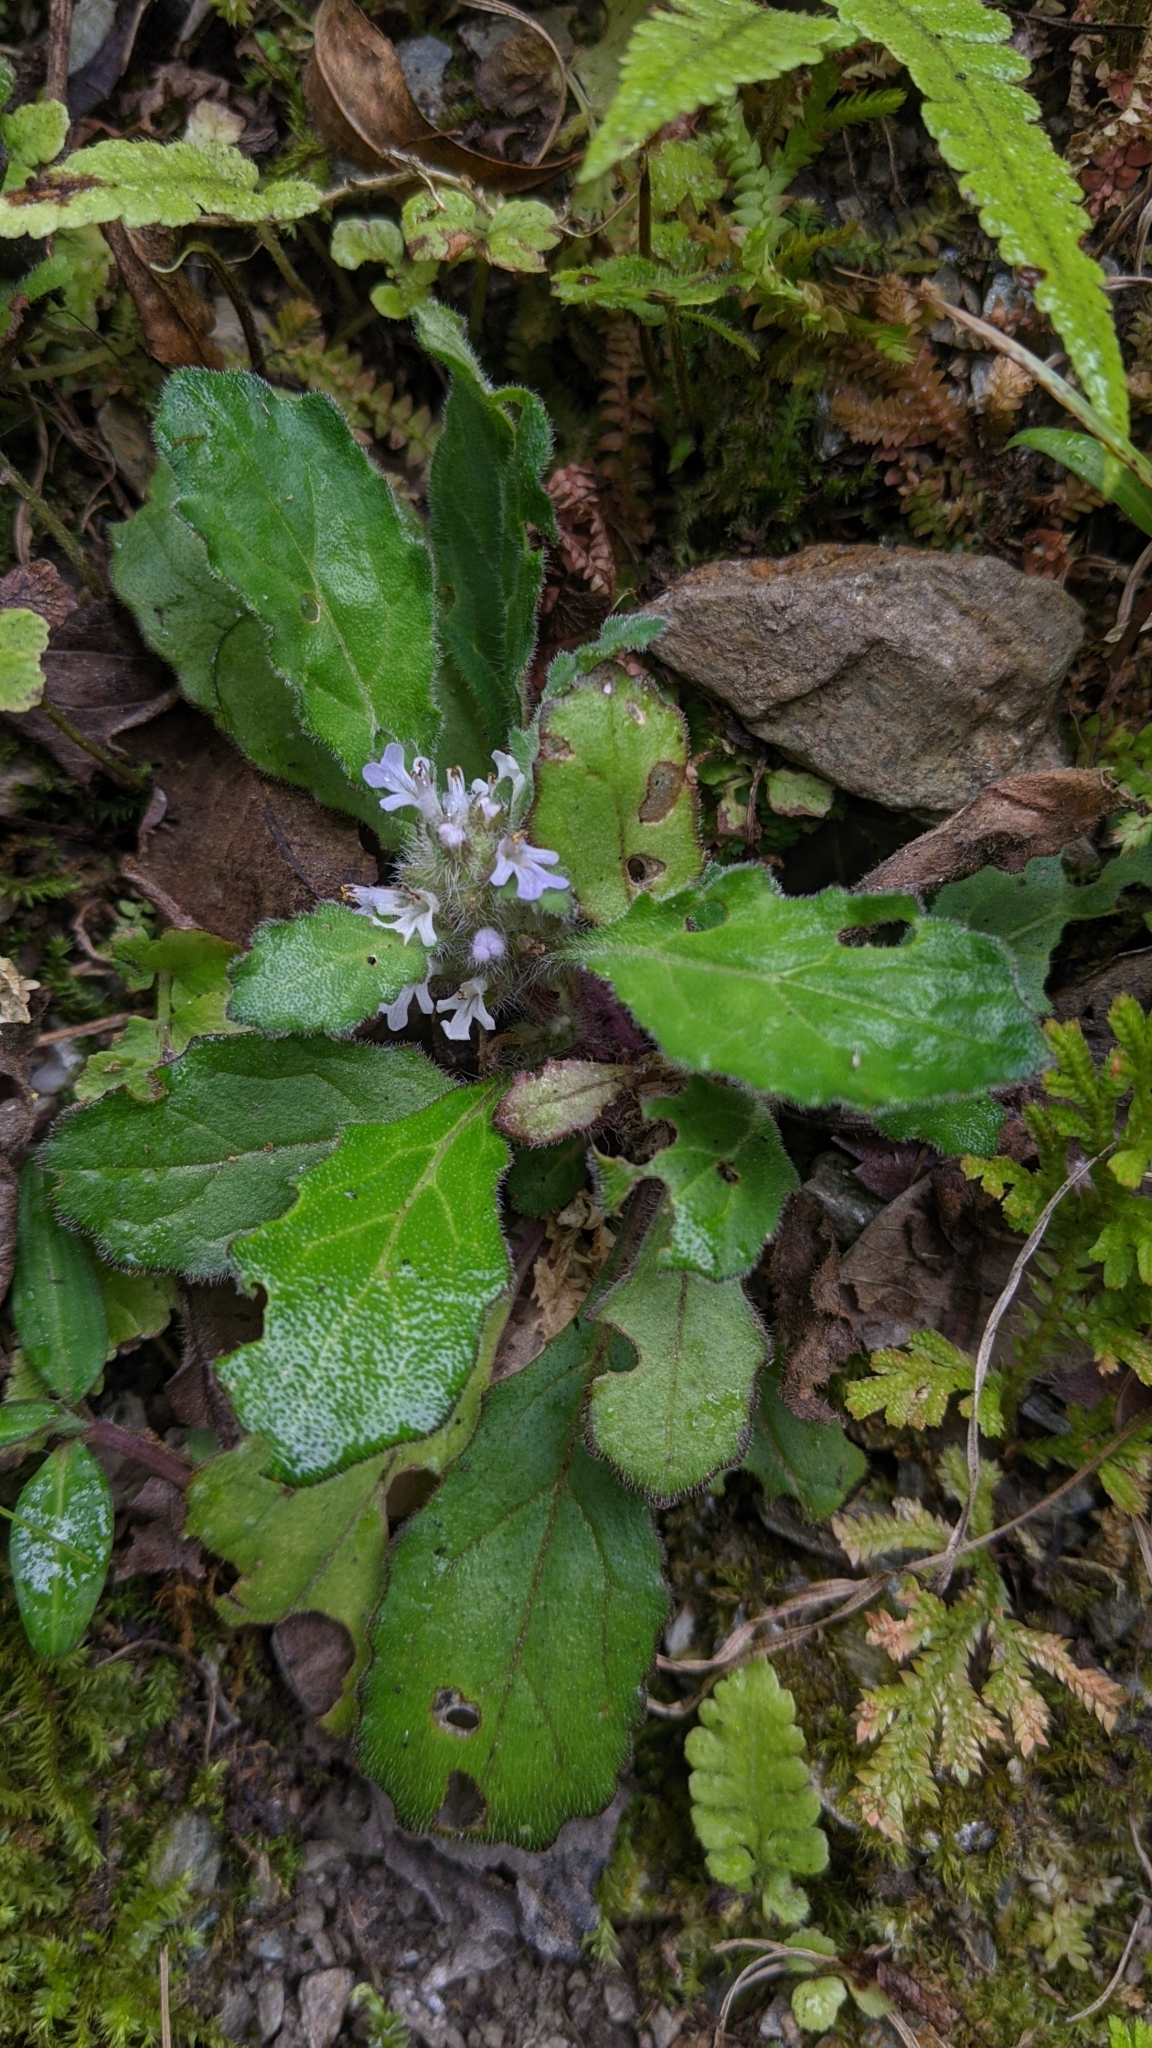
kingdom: Plantae
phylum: Tracheophyta
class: Magnoliopsida
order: Lamiales
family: Lamiaceae
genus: Ajuga
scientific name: Ajuga taiwanensis
